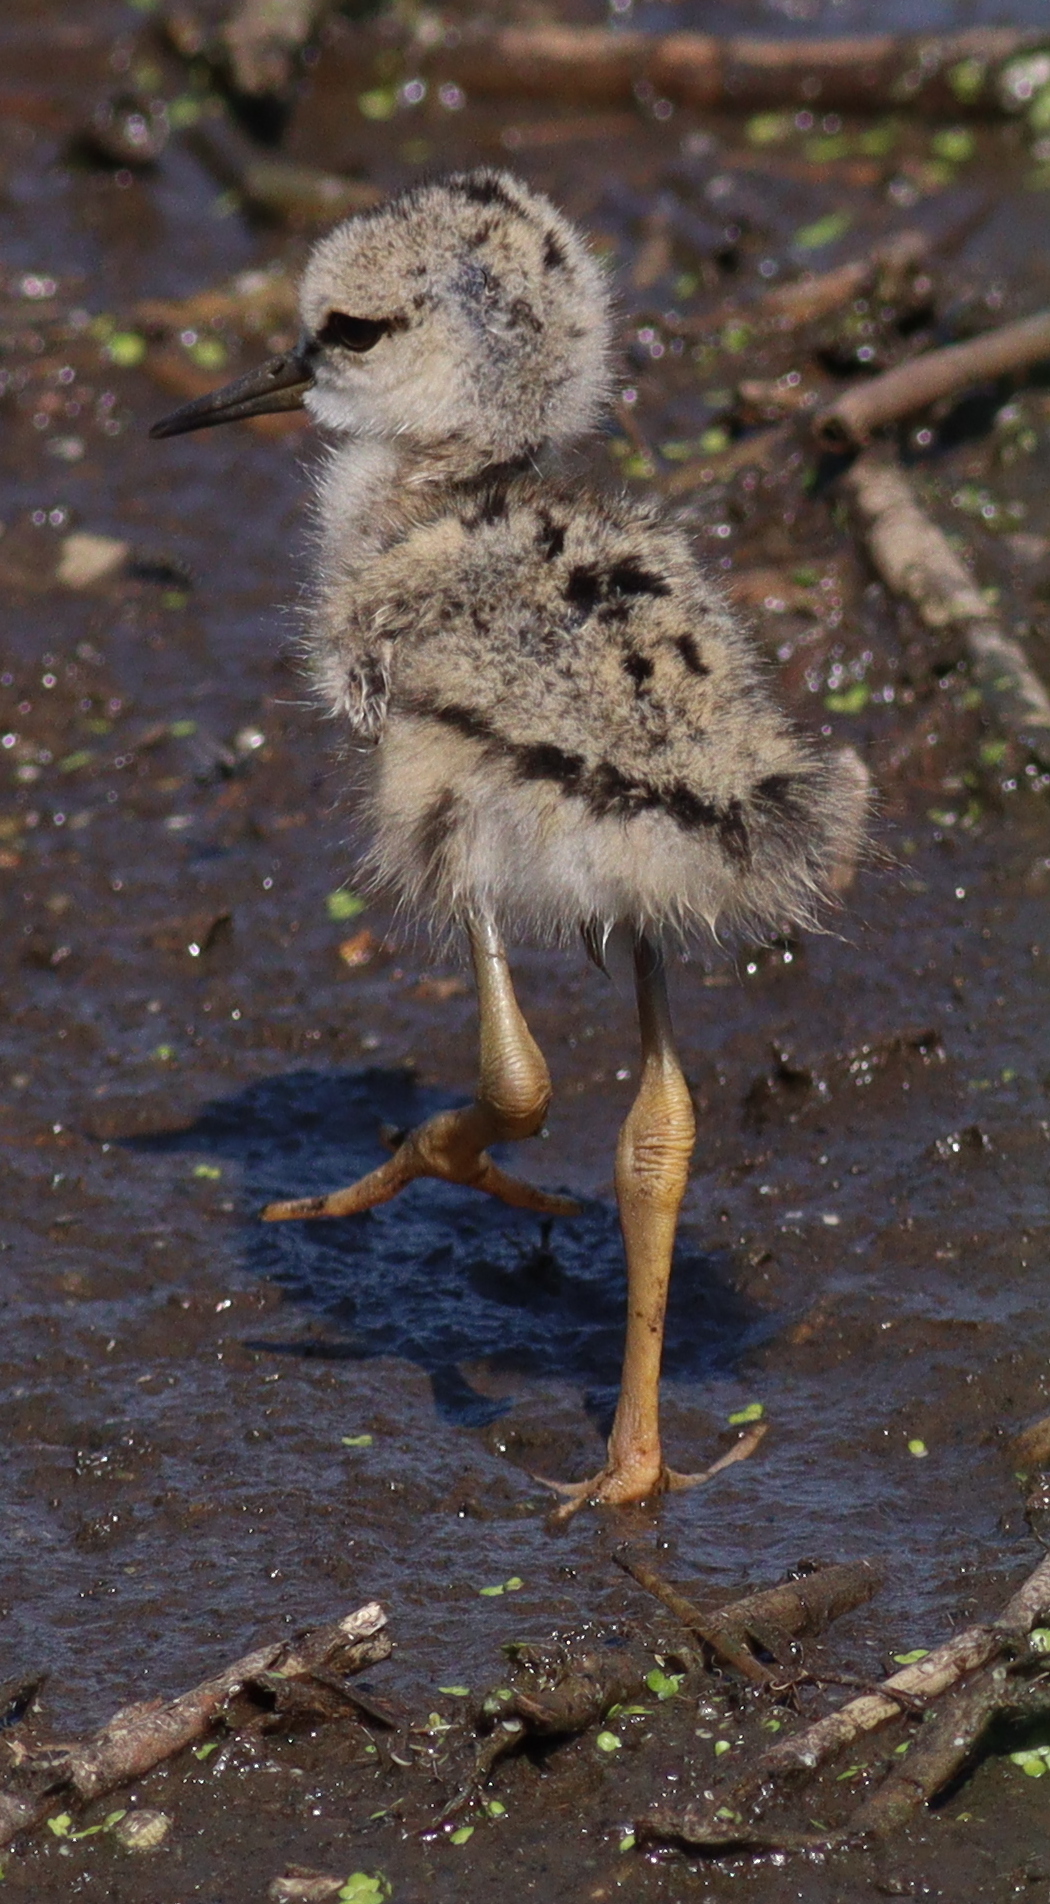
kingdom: Animalia
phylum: Chordata
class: Aves
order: Charadriiformes
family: Recurvirostridae
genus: Himantopus
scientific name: Himantopus himantopus
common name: Black-winged stilt
